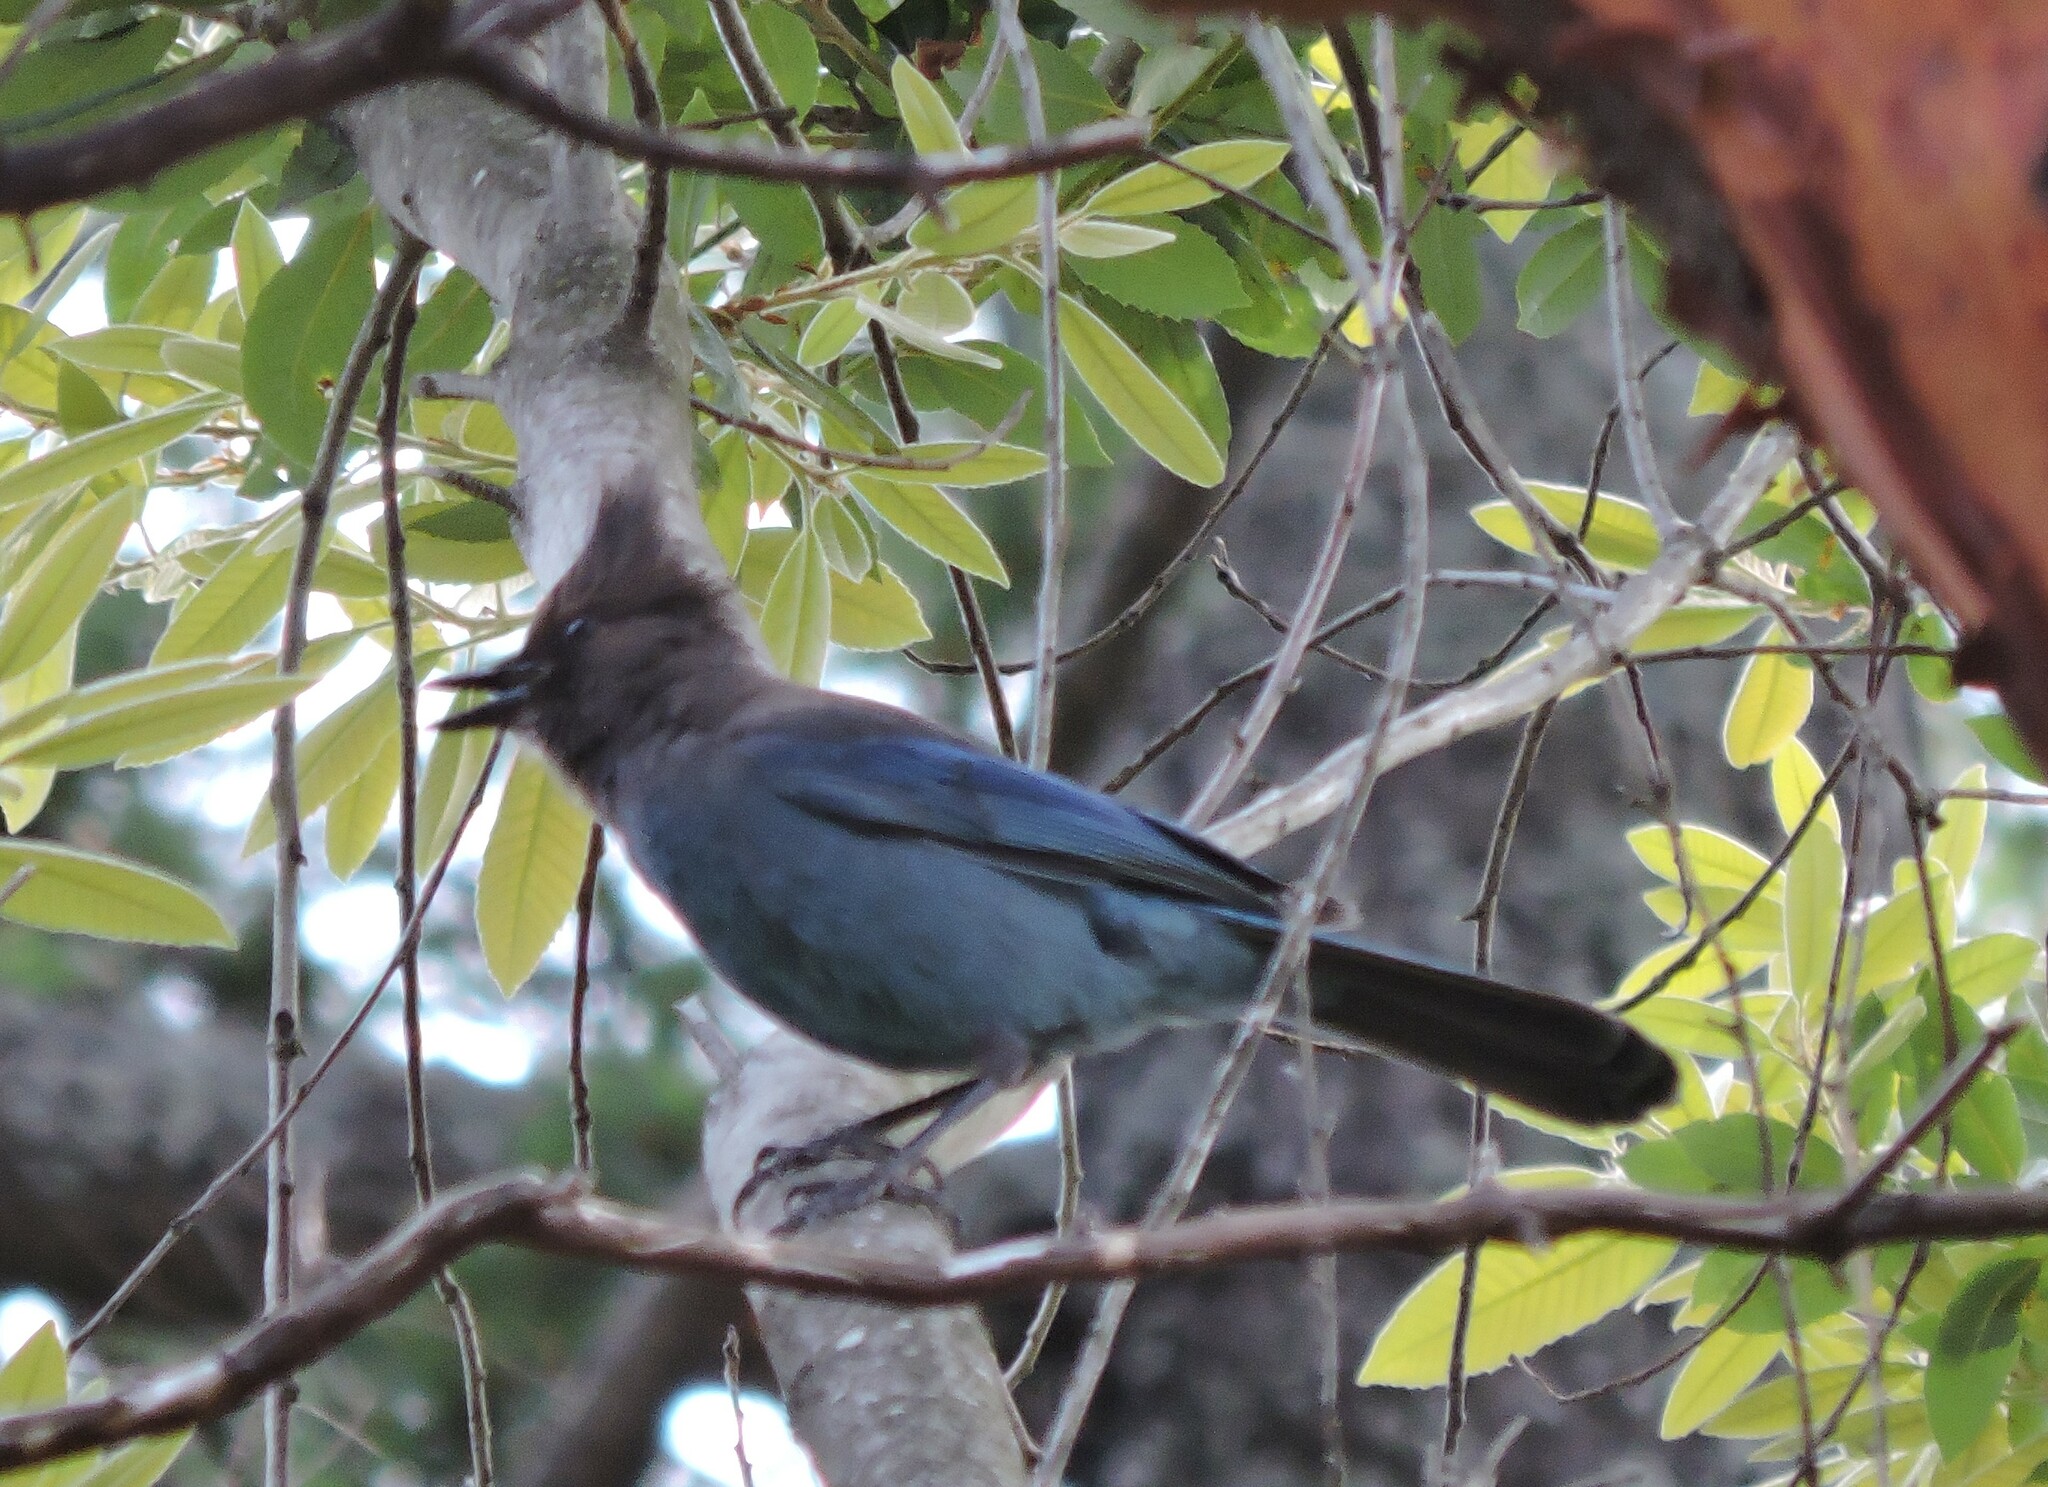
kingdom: Animalia
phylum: Chordata
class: Aves
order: Passeriformes
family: Corvidae
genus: Cyanocitta
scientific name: Cyanocitta stelleri
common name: Steller's jay
